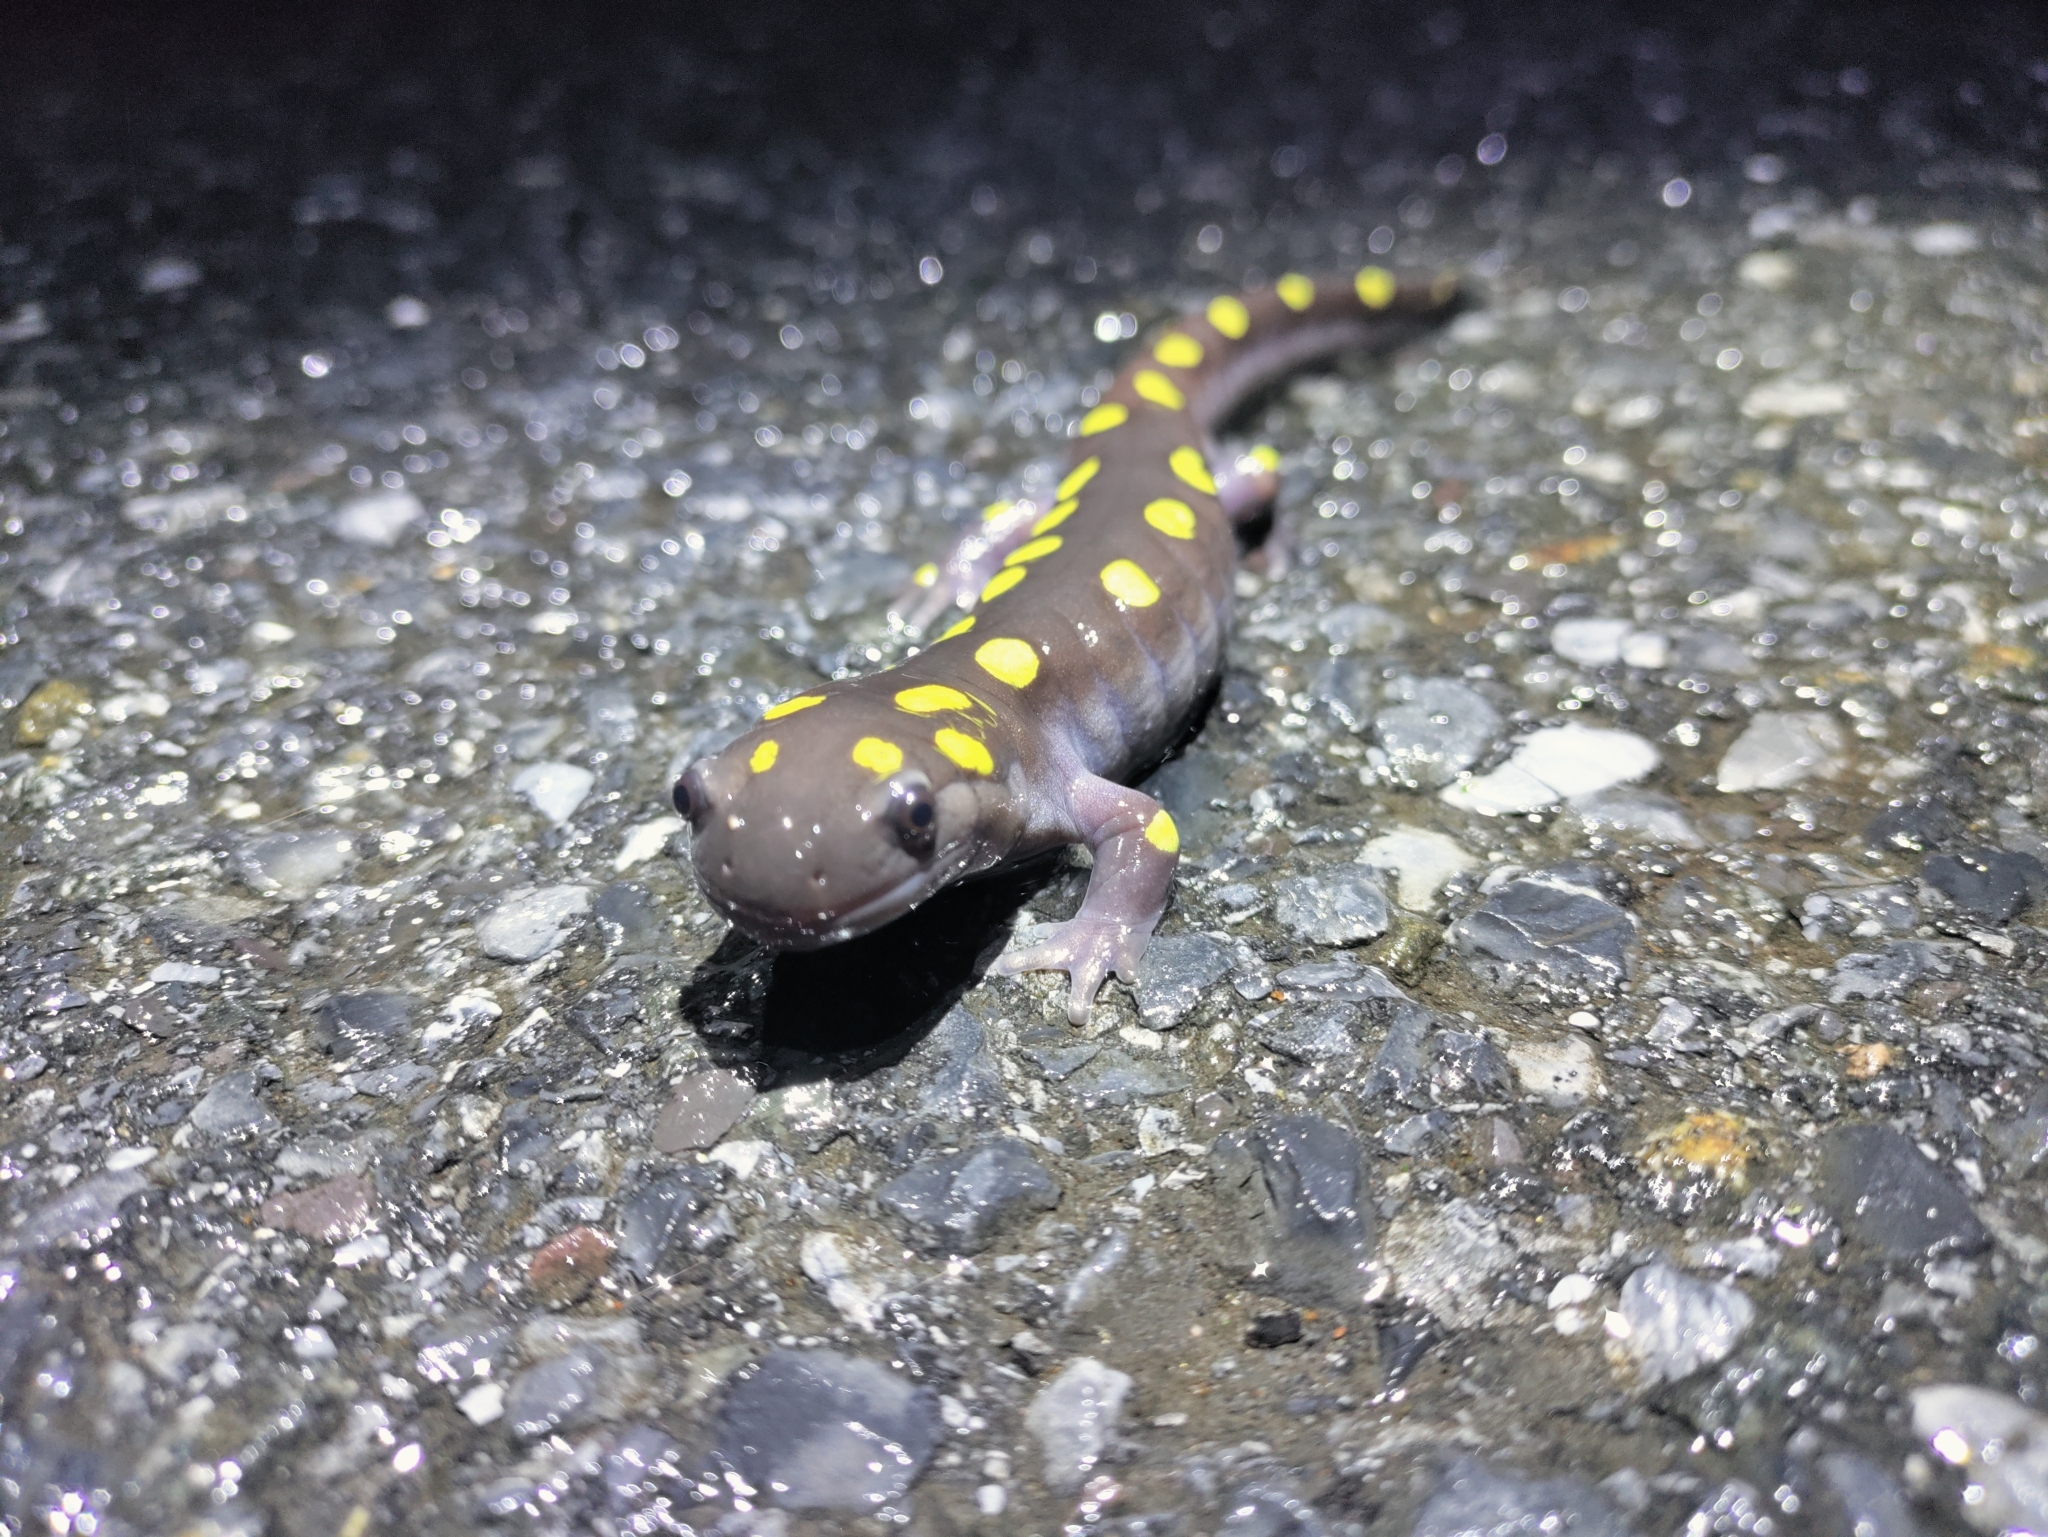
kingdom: Animalia
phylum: Chordata
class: Amphibia
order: Caudata
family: Ambystomatidae
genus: Ambystoma
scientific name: Ambystoma maculatum
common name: Spotted salamander
